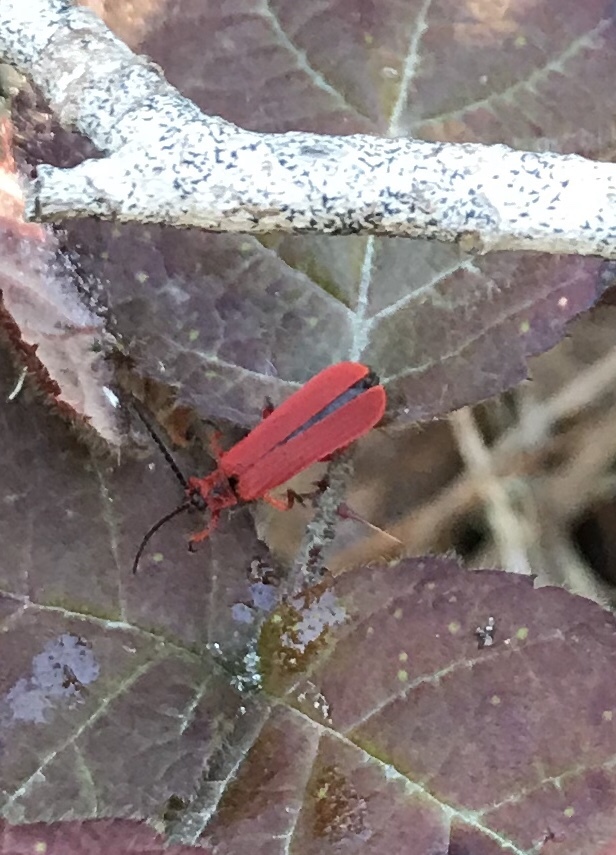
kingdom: Animalia
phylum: Arthropoda
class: Insecta
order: Coleoptera
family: Lycidae
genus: Dictyoptera
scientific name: Dictyoptera simplicipes
